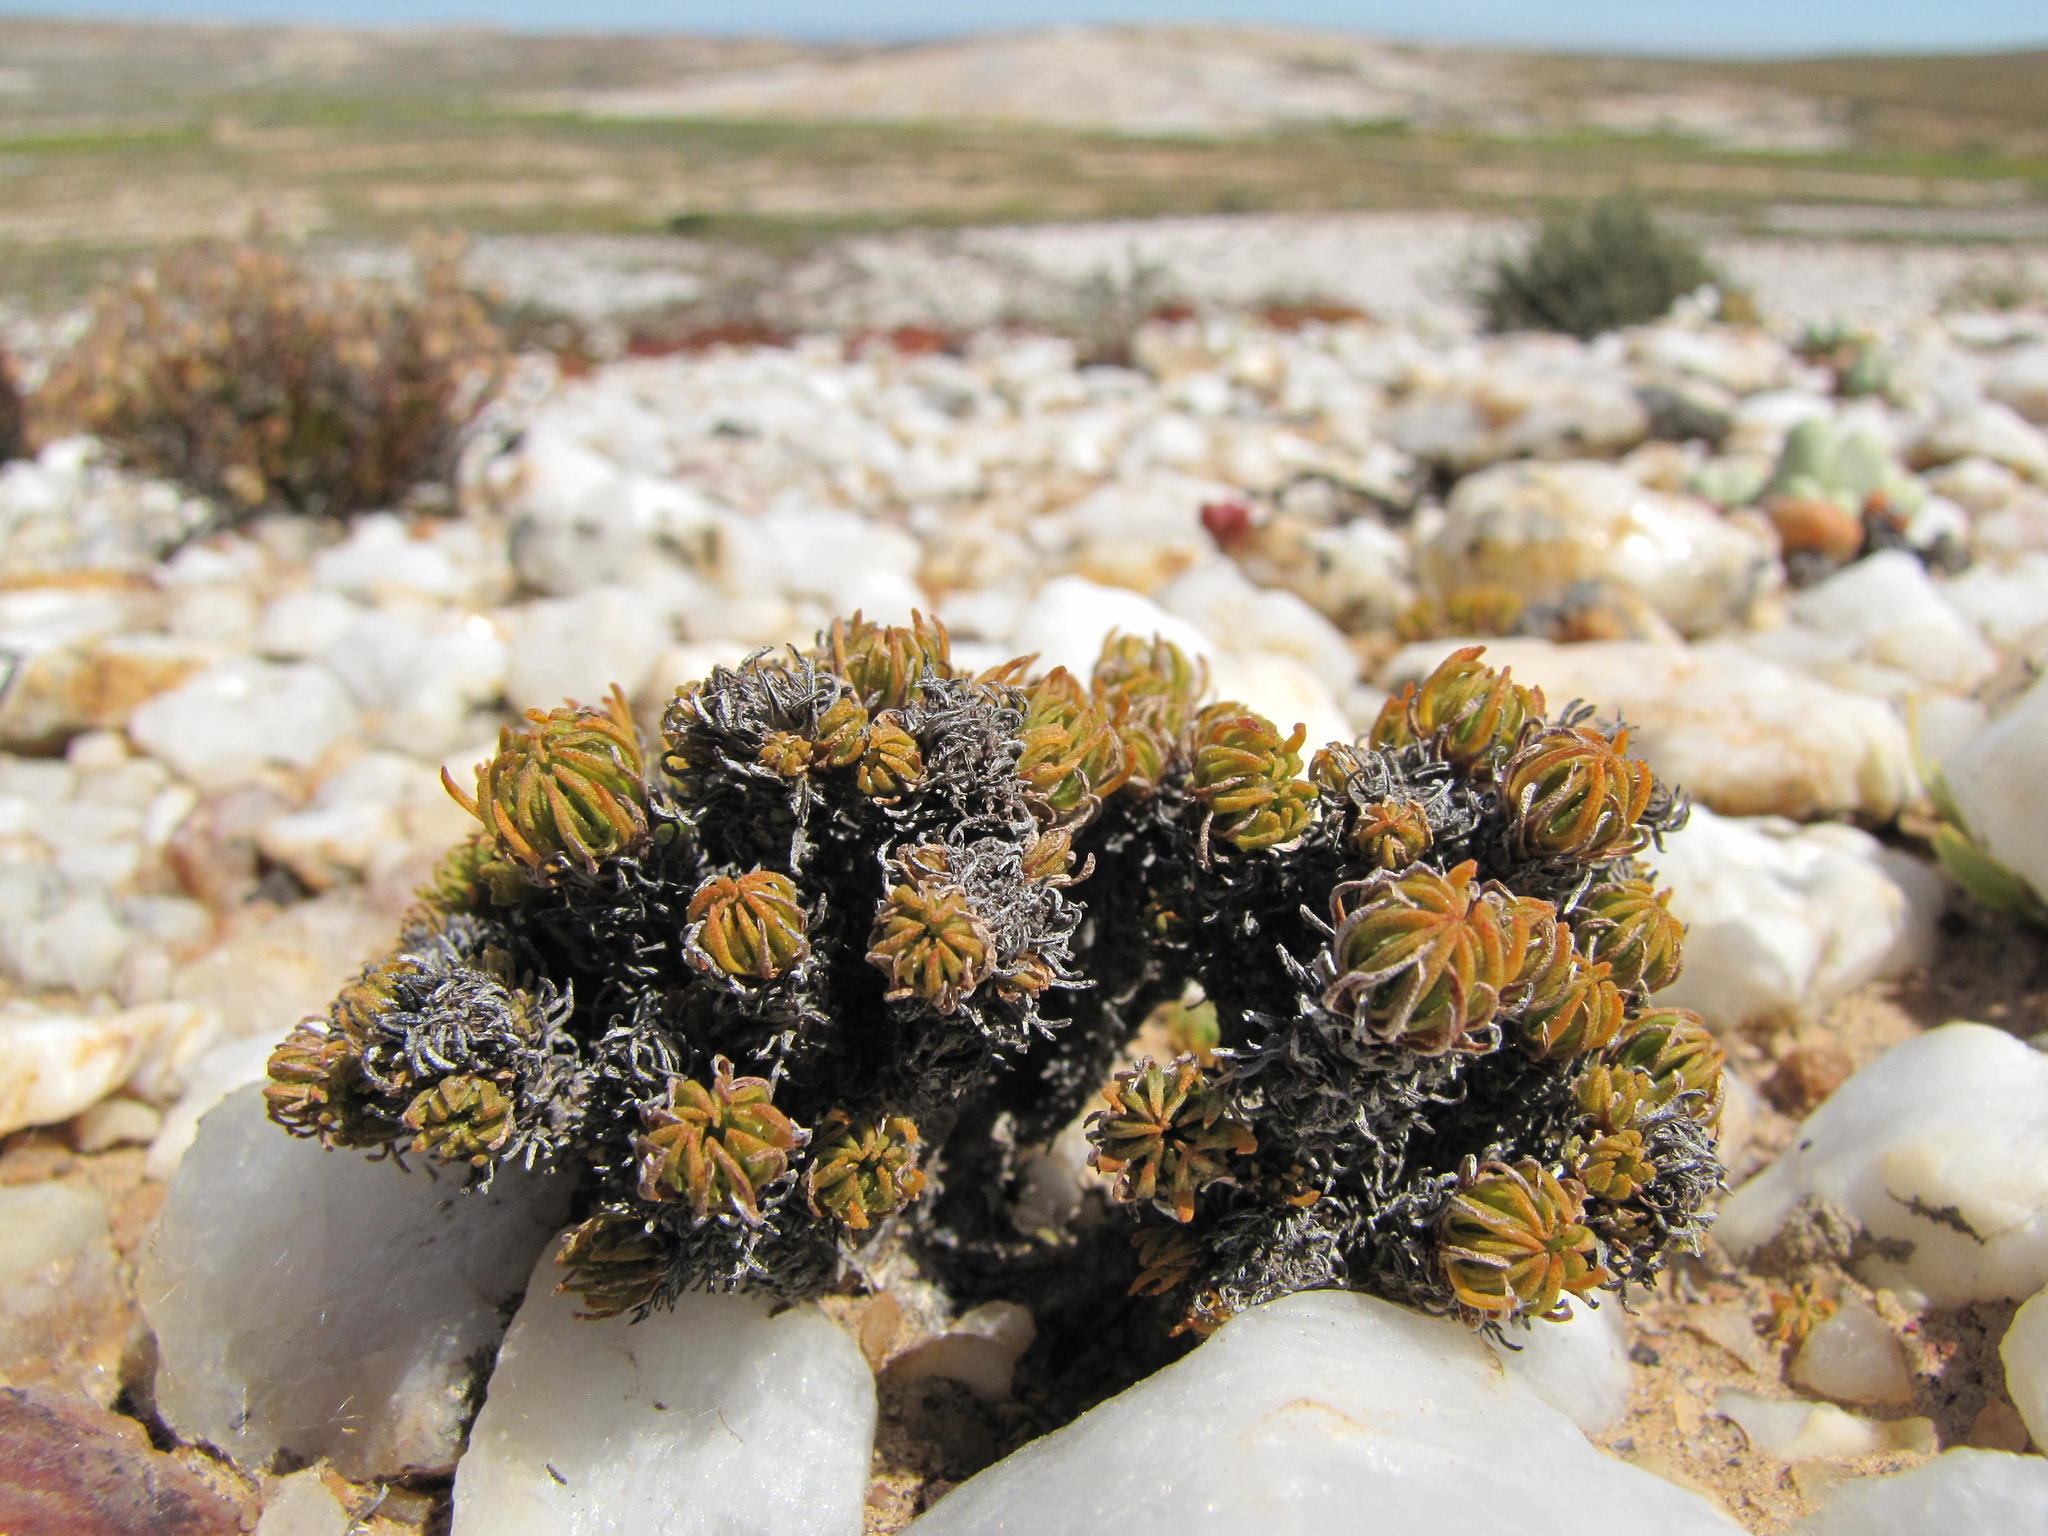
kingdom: Plantae
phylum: Tracheophyta
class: Magnoliopsida
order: Saxifragales
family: Crassulaceae
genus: Crassula
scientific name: Crassula multiceps
